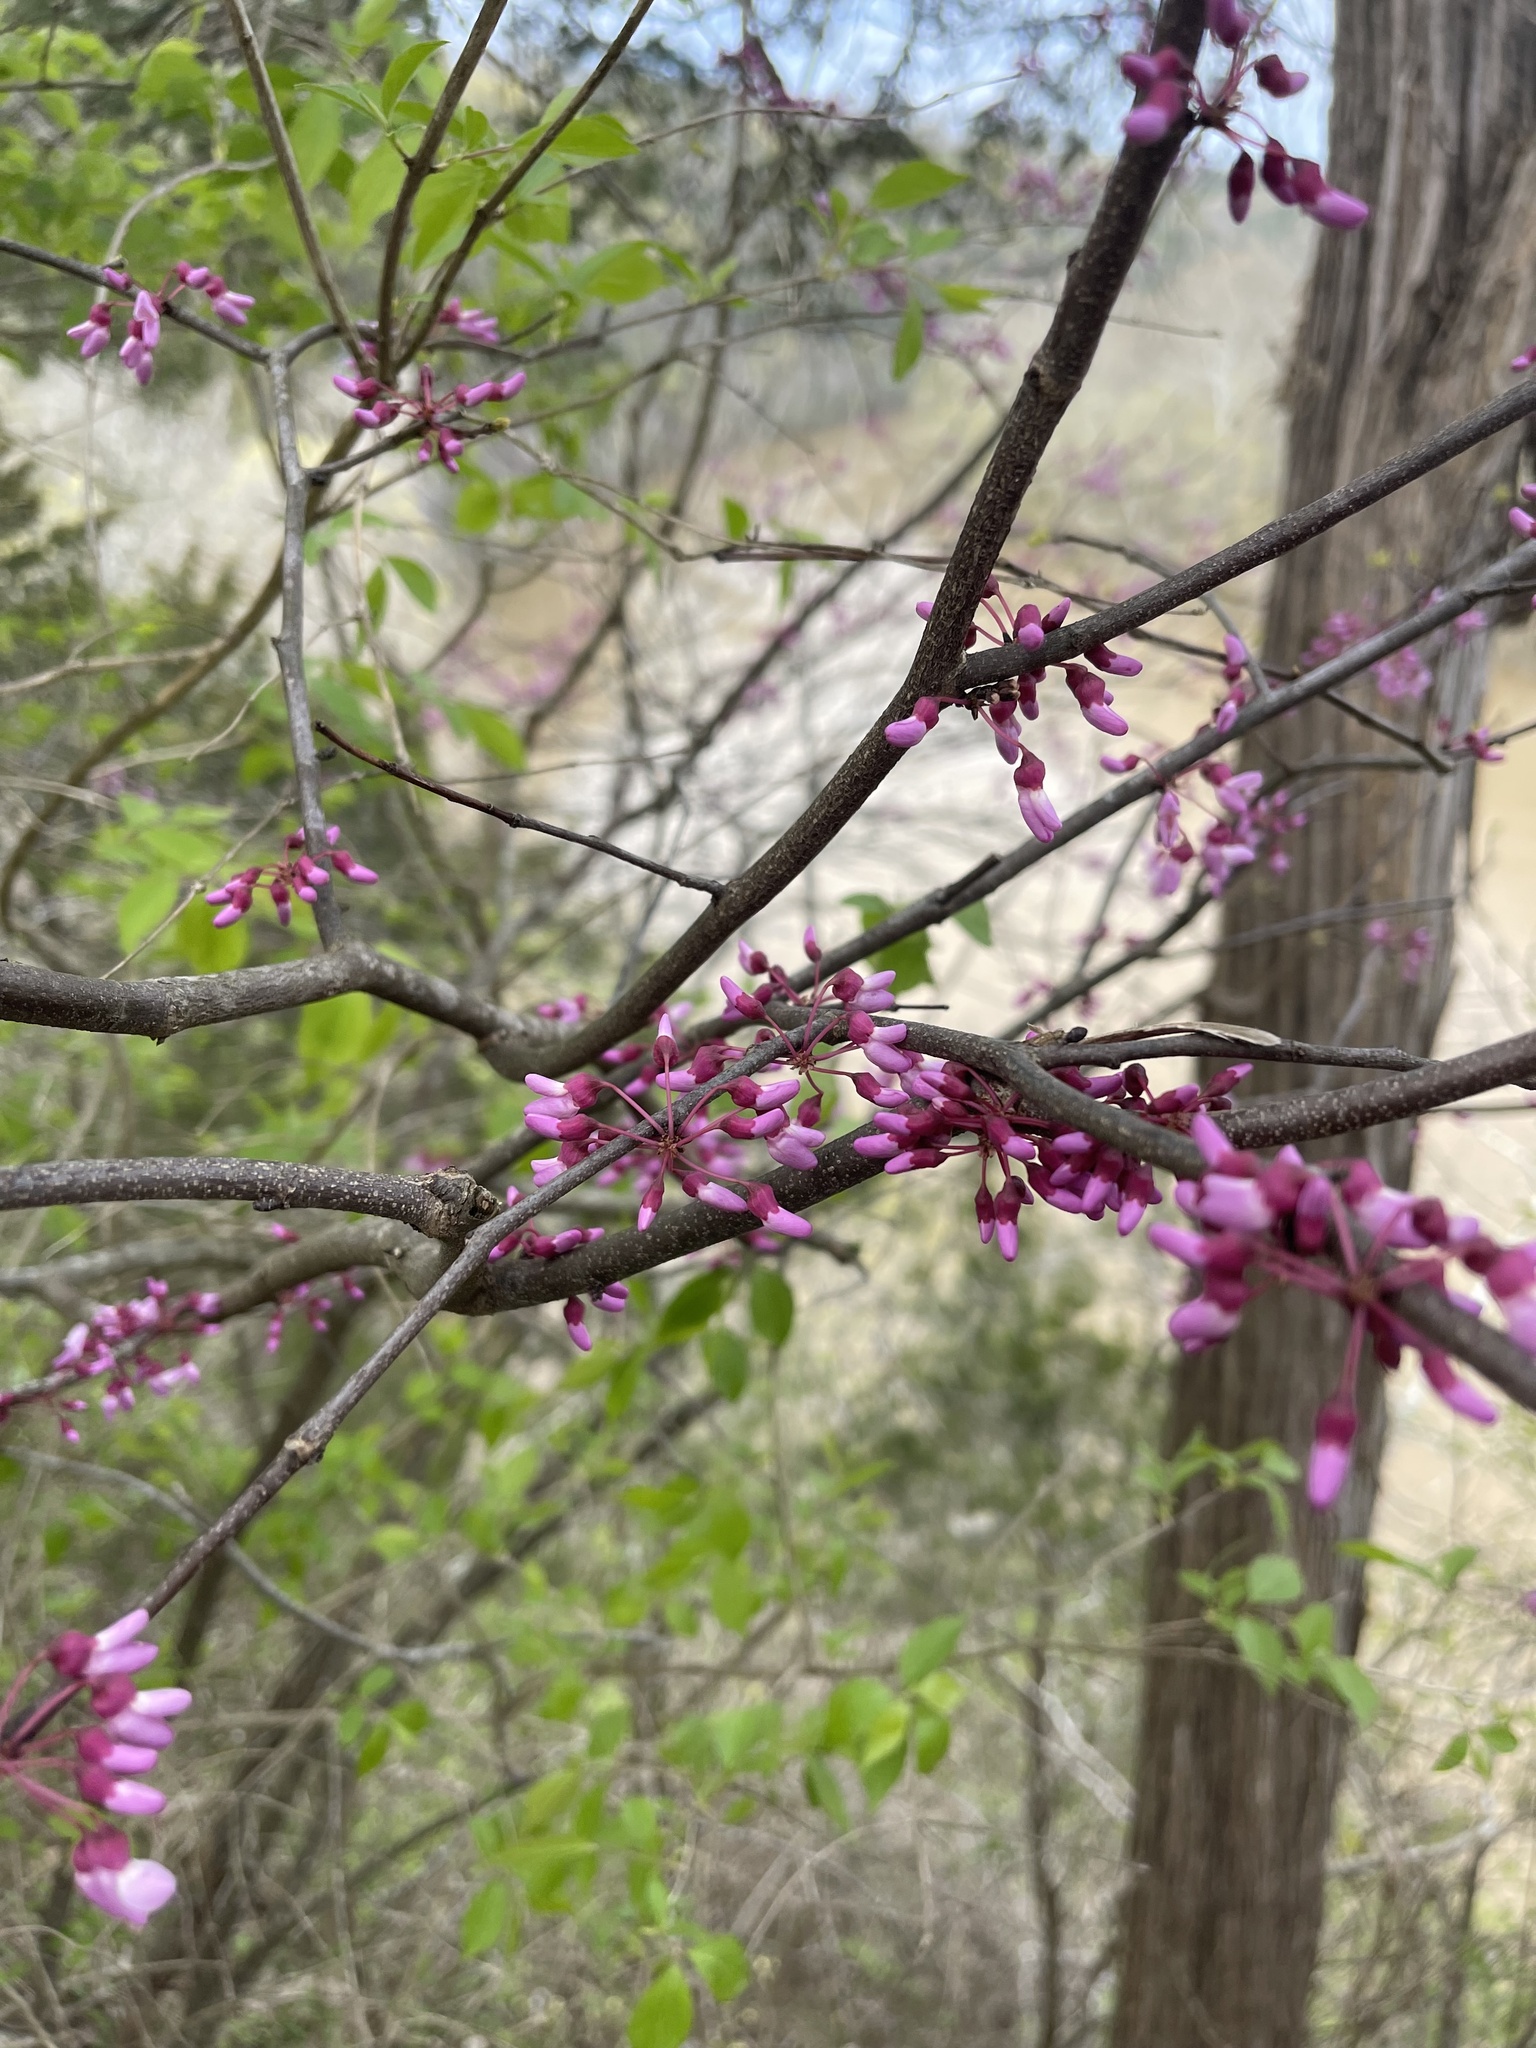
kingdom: Plantae
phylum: Tracheophyta
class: Magnoliopsida
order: Fabales
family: Fabaceae
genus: Cercis
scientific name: Cercis canadensis
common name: Eastern redbud
